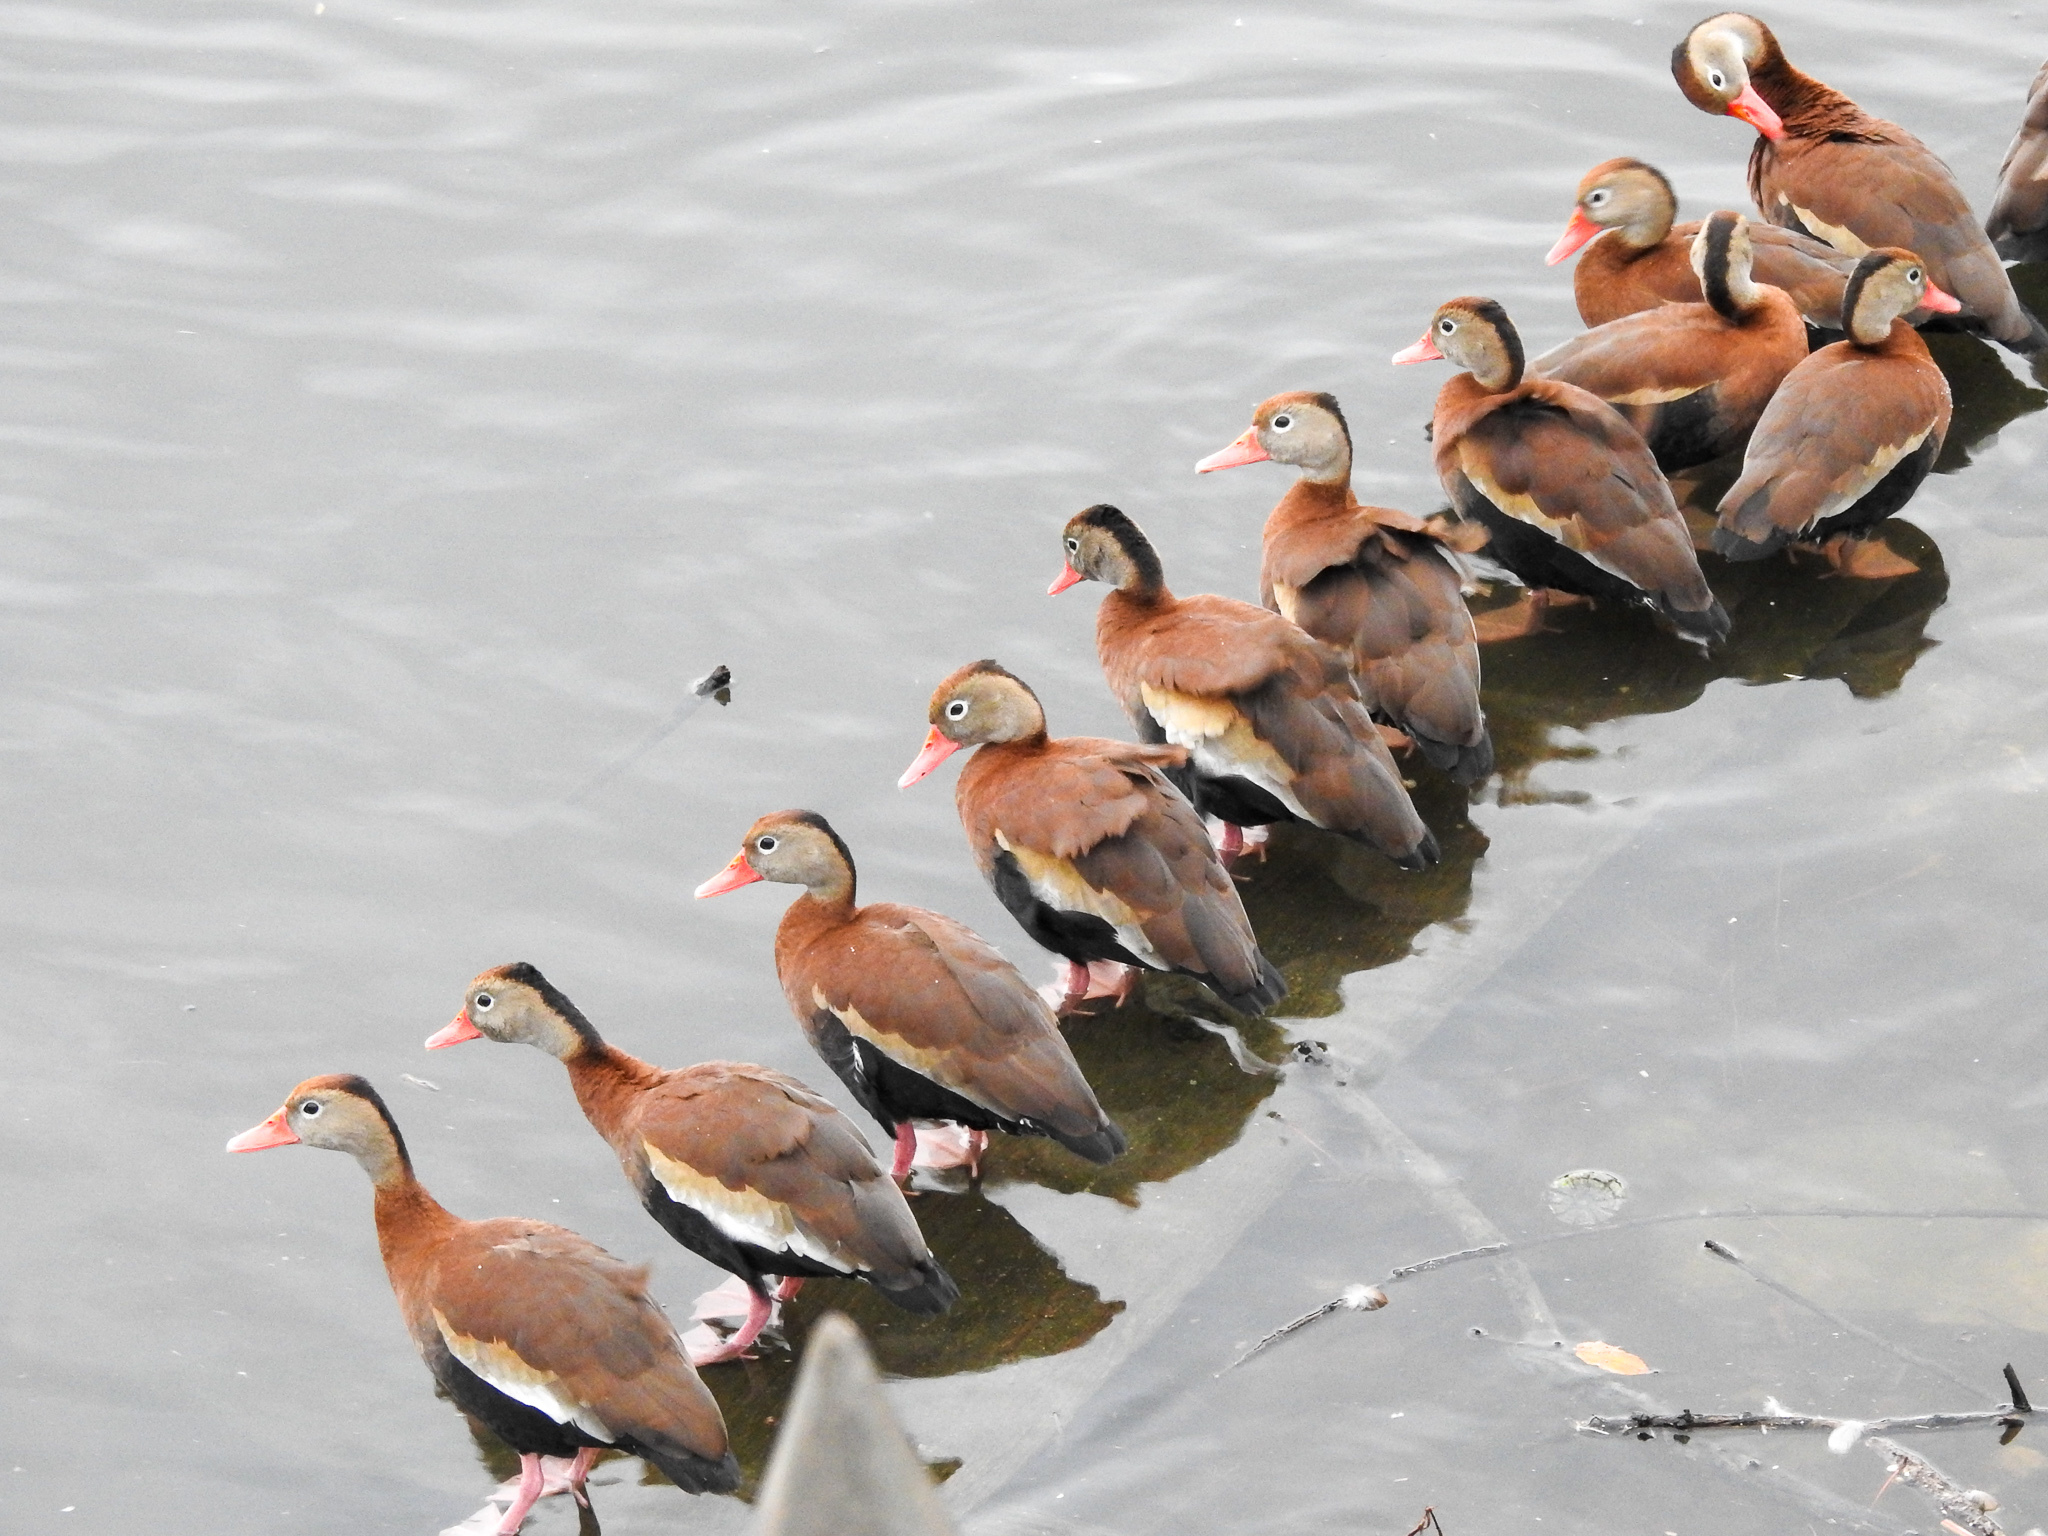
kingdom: Animalia
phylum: Chordata
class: Aves
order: Anseriformes
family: Anatidae
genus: Dendrocygna
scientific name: Dendrocygna autumnalis
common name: Black-bellied whistling duck
